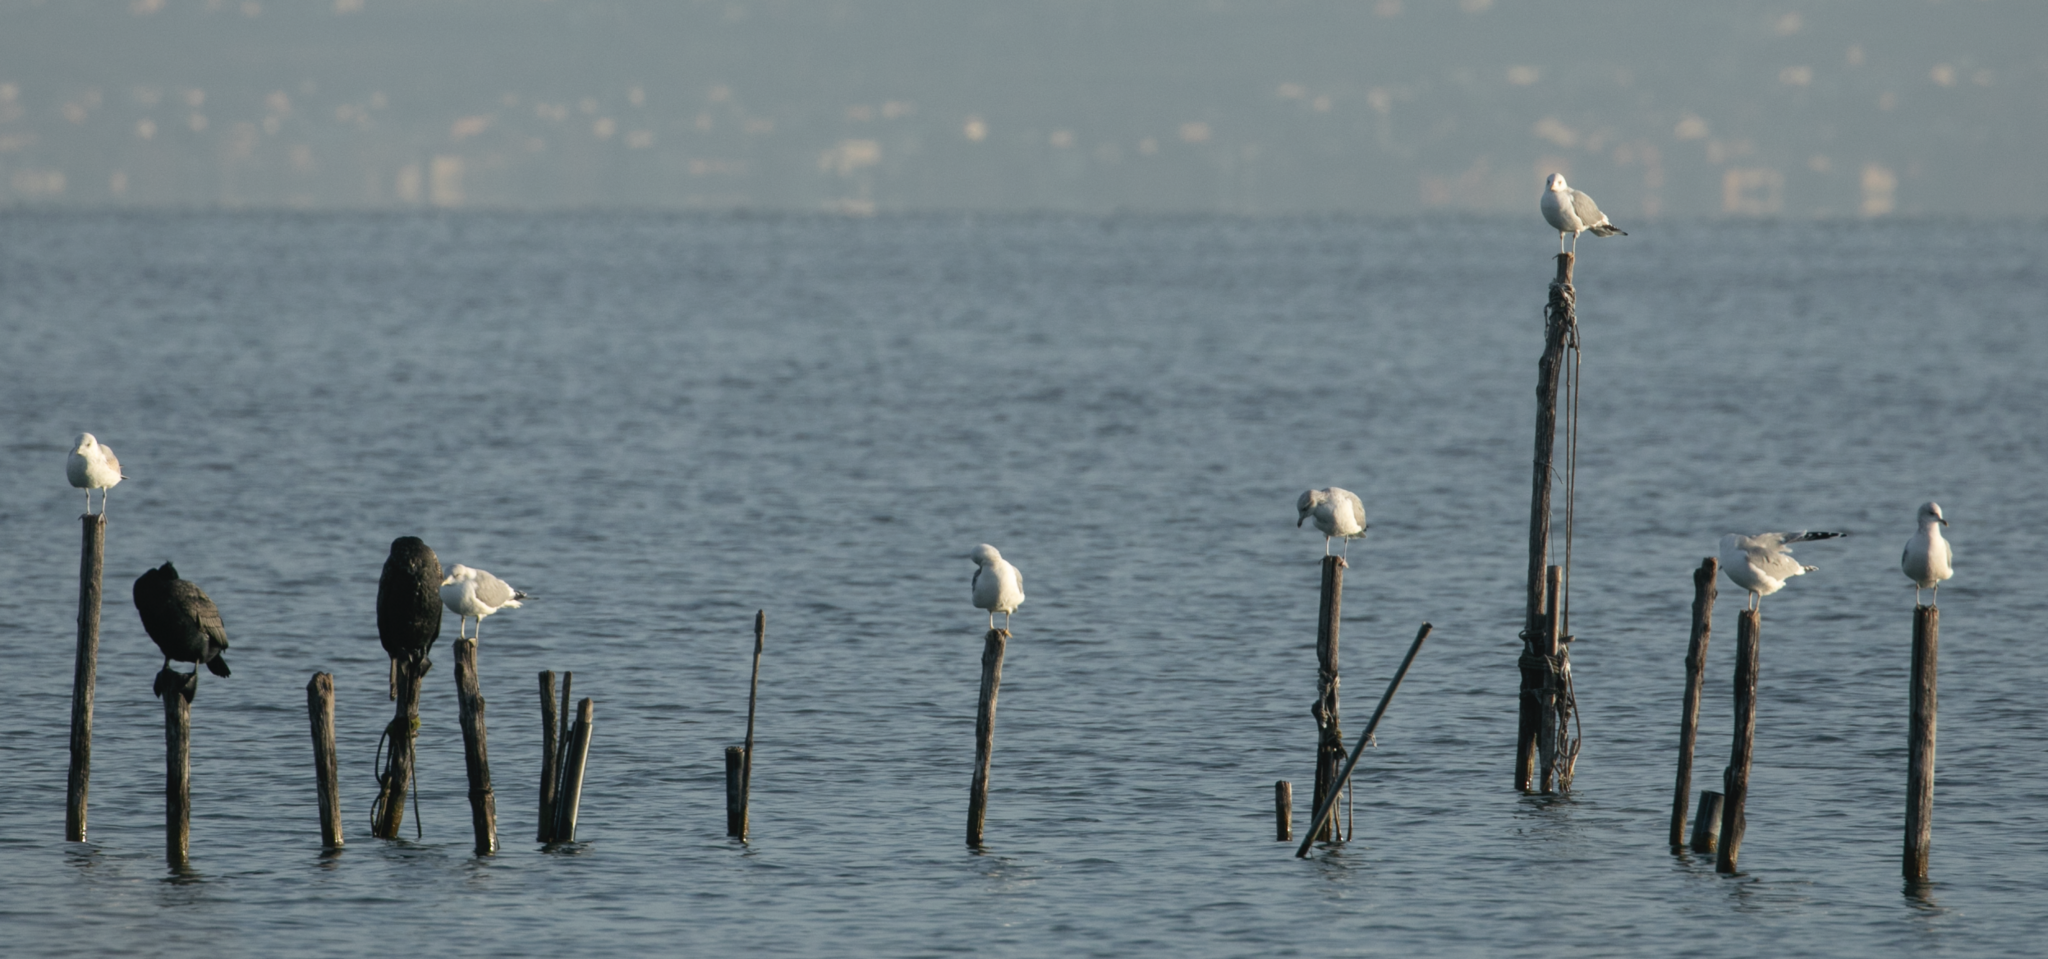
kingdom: Animalia
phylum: Chordata
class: Aves
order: Charadriiformes
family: Laridae
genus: Larus
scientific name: Larus canus
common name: Mew gull
